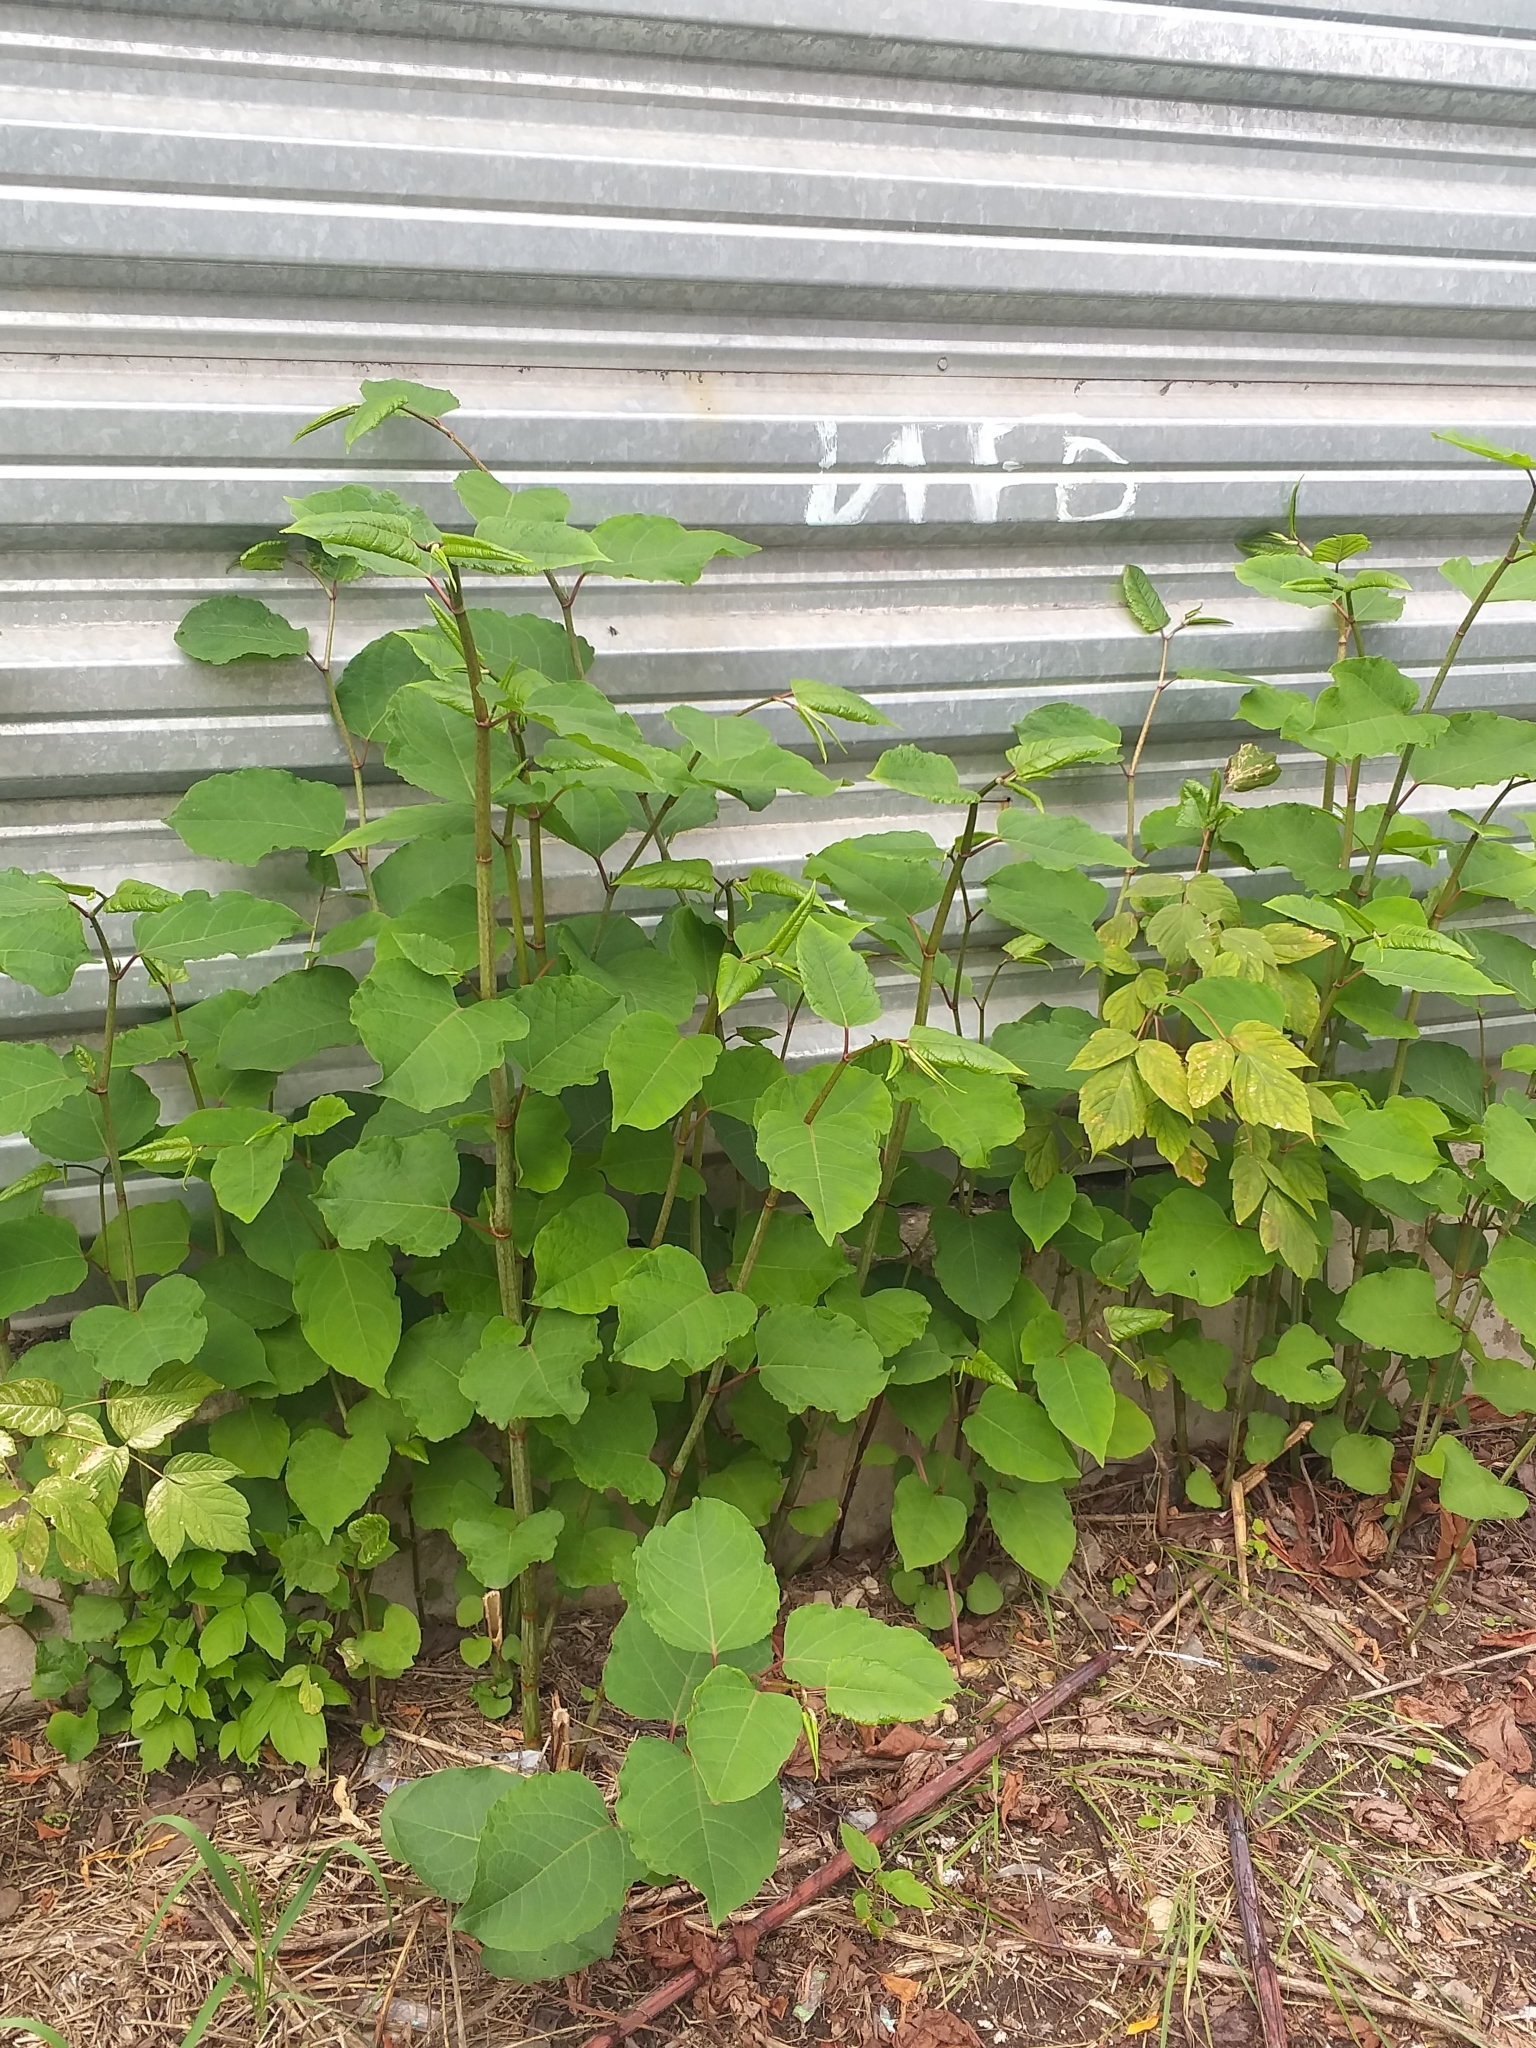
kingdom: Plantae
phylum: Tracheophyta
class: Magnoliopsida
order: Caryophyllales
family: Polygonaceae
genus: Reynoutria
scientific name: Reynoutria bohemica
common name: Bohemian knotweed
